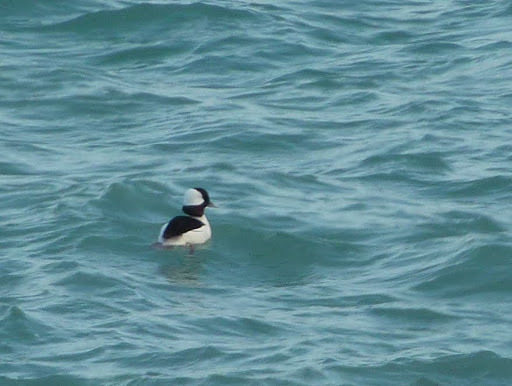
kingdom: Animalia
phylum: Chordata
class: Aves
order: Anseriformes
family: Anatidae
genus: Bucephala
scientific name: Bucephala albeola
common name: Bufflehead
